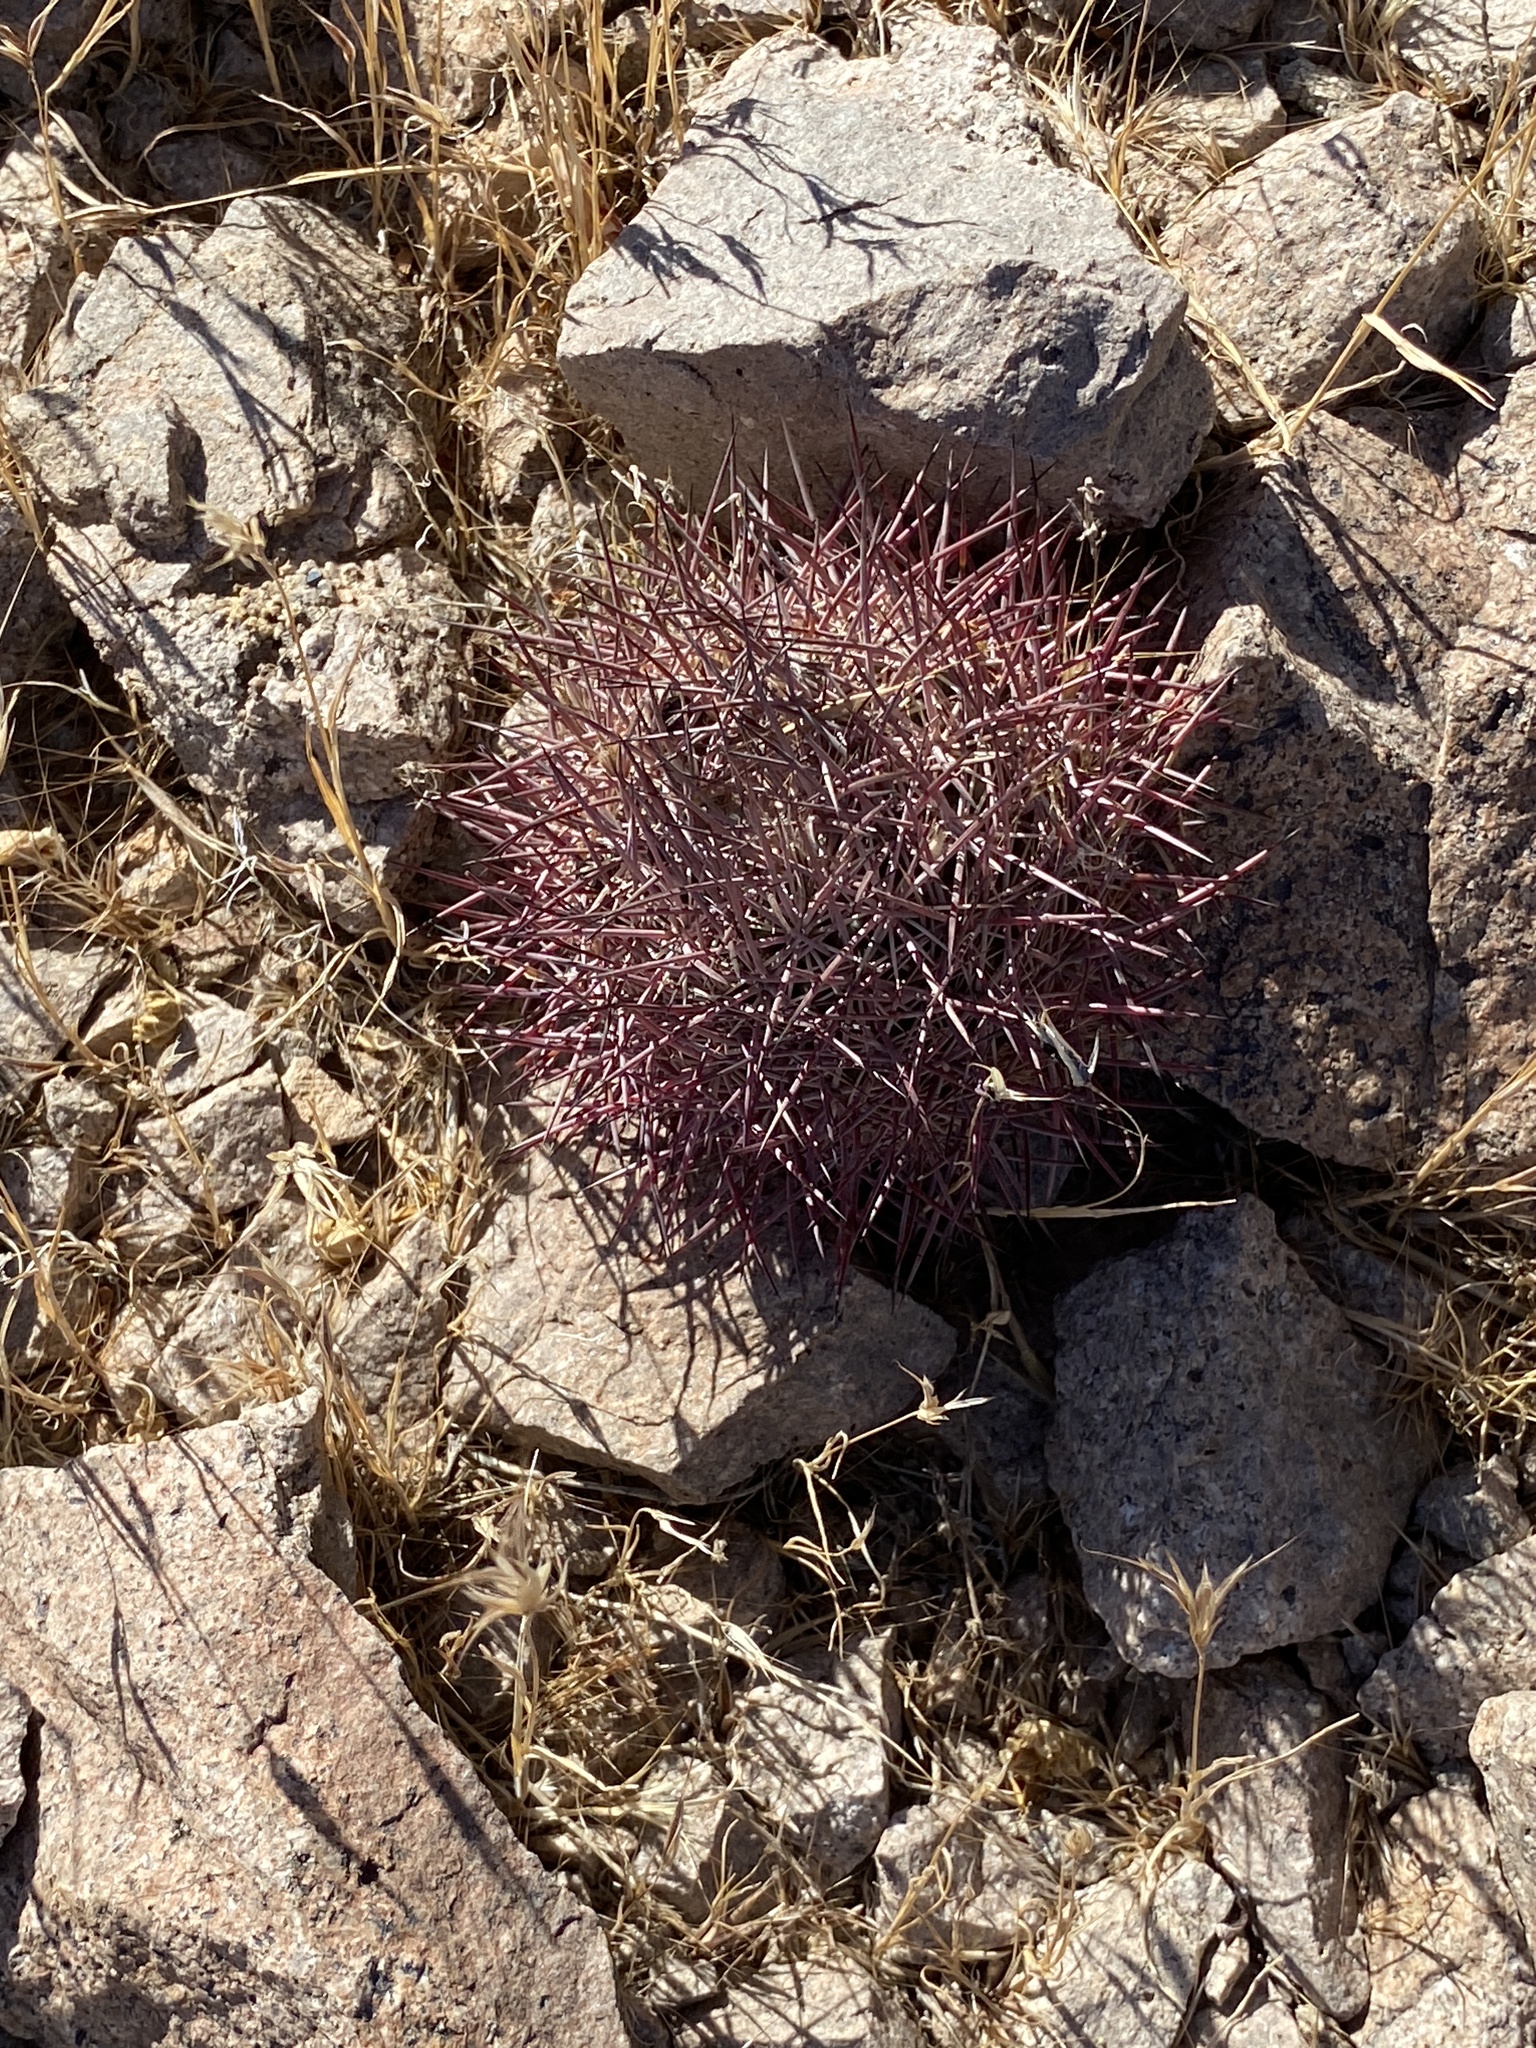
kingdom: Plantae
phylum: Tracheophyta
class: Magnoliopsida
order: Caryophyllales
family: Cactaceae
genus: Sclerocactus
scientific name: Sclerocactus johnsonii
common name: Eight-spine fishhook cactus
